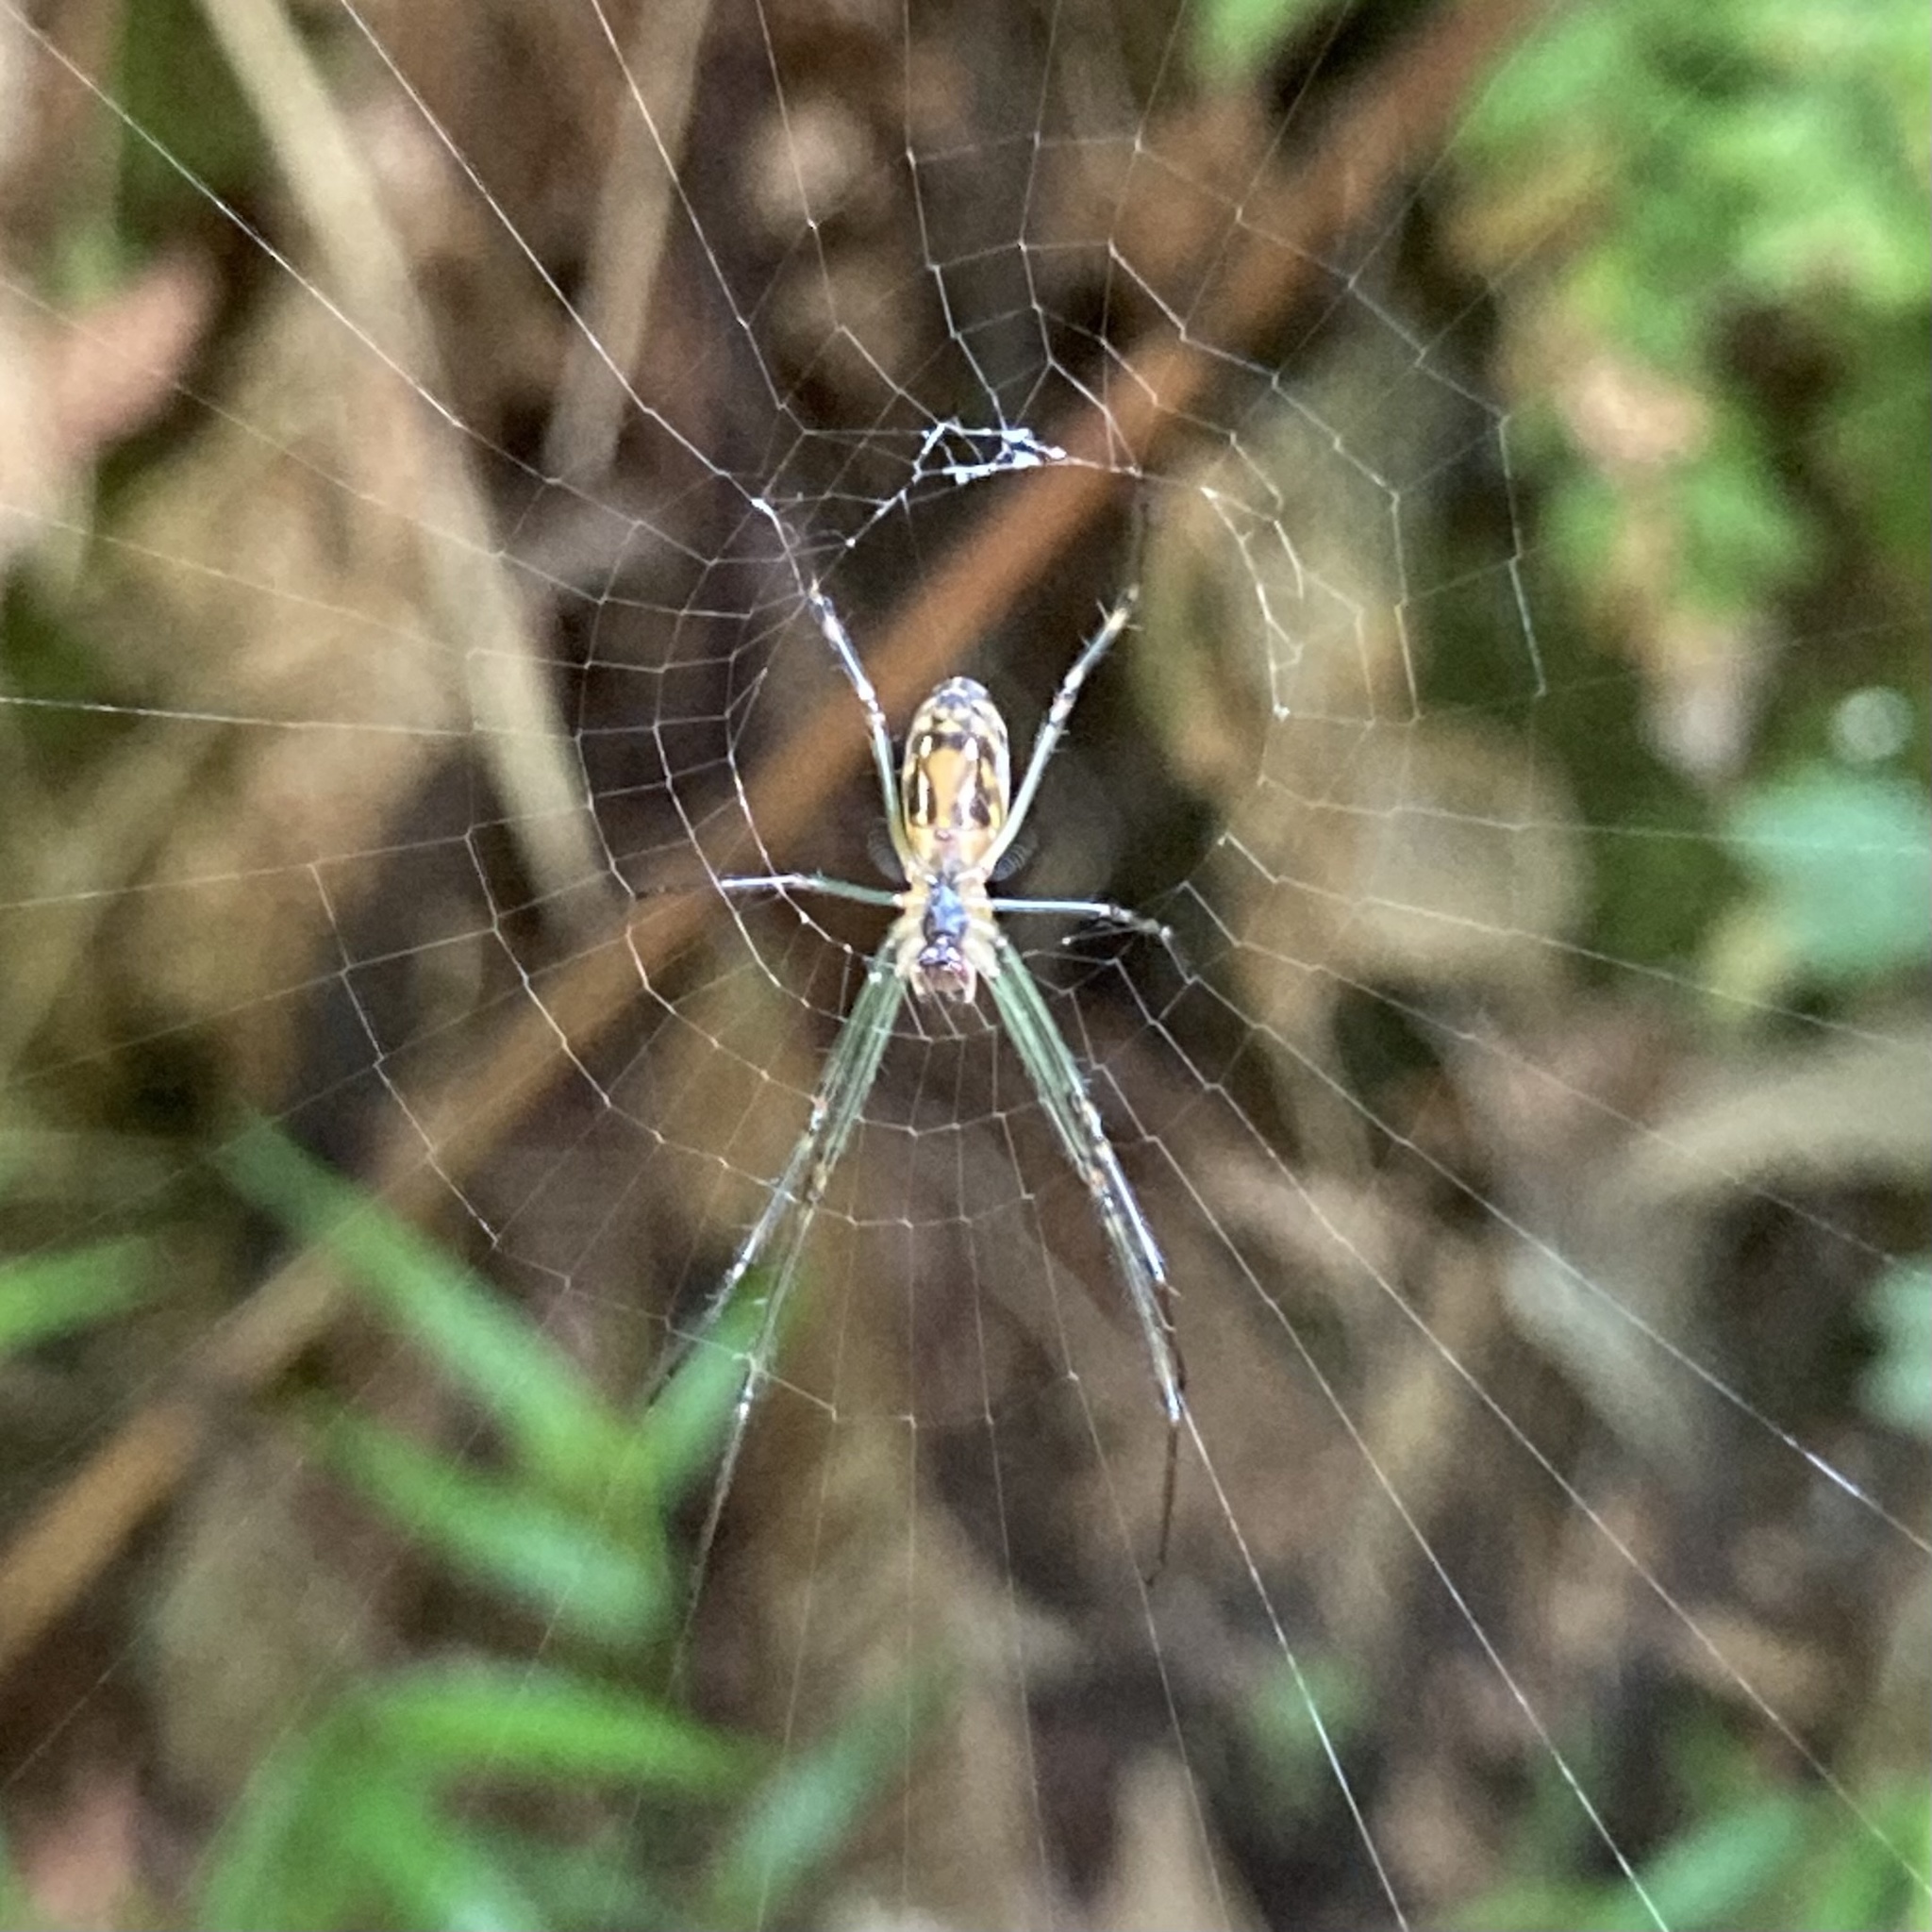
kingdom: Animalia
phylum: Arthropoda
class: Arachnida
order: Araneae
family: Tetragnathidae
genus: Leucauge
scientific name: Leucauge dromedaria
